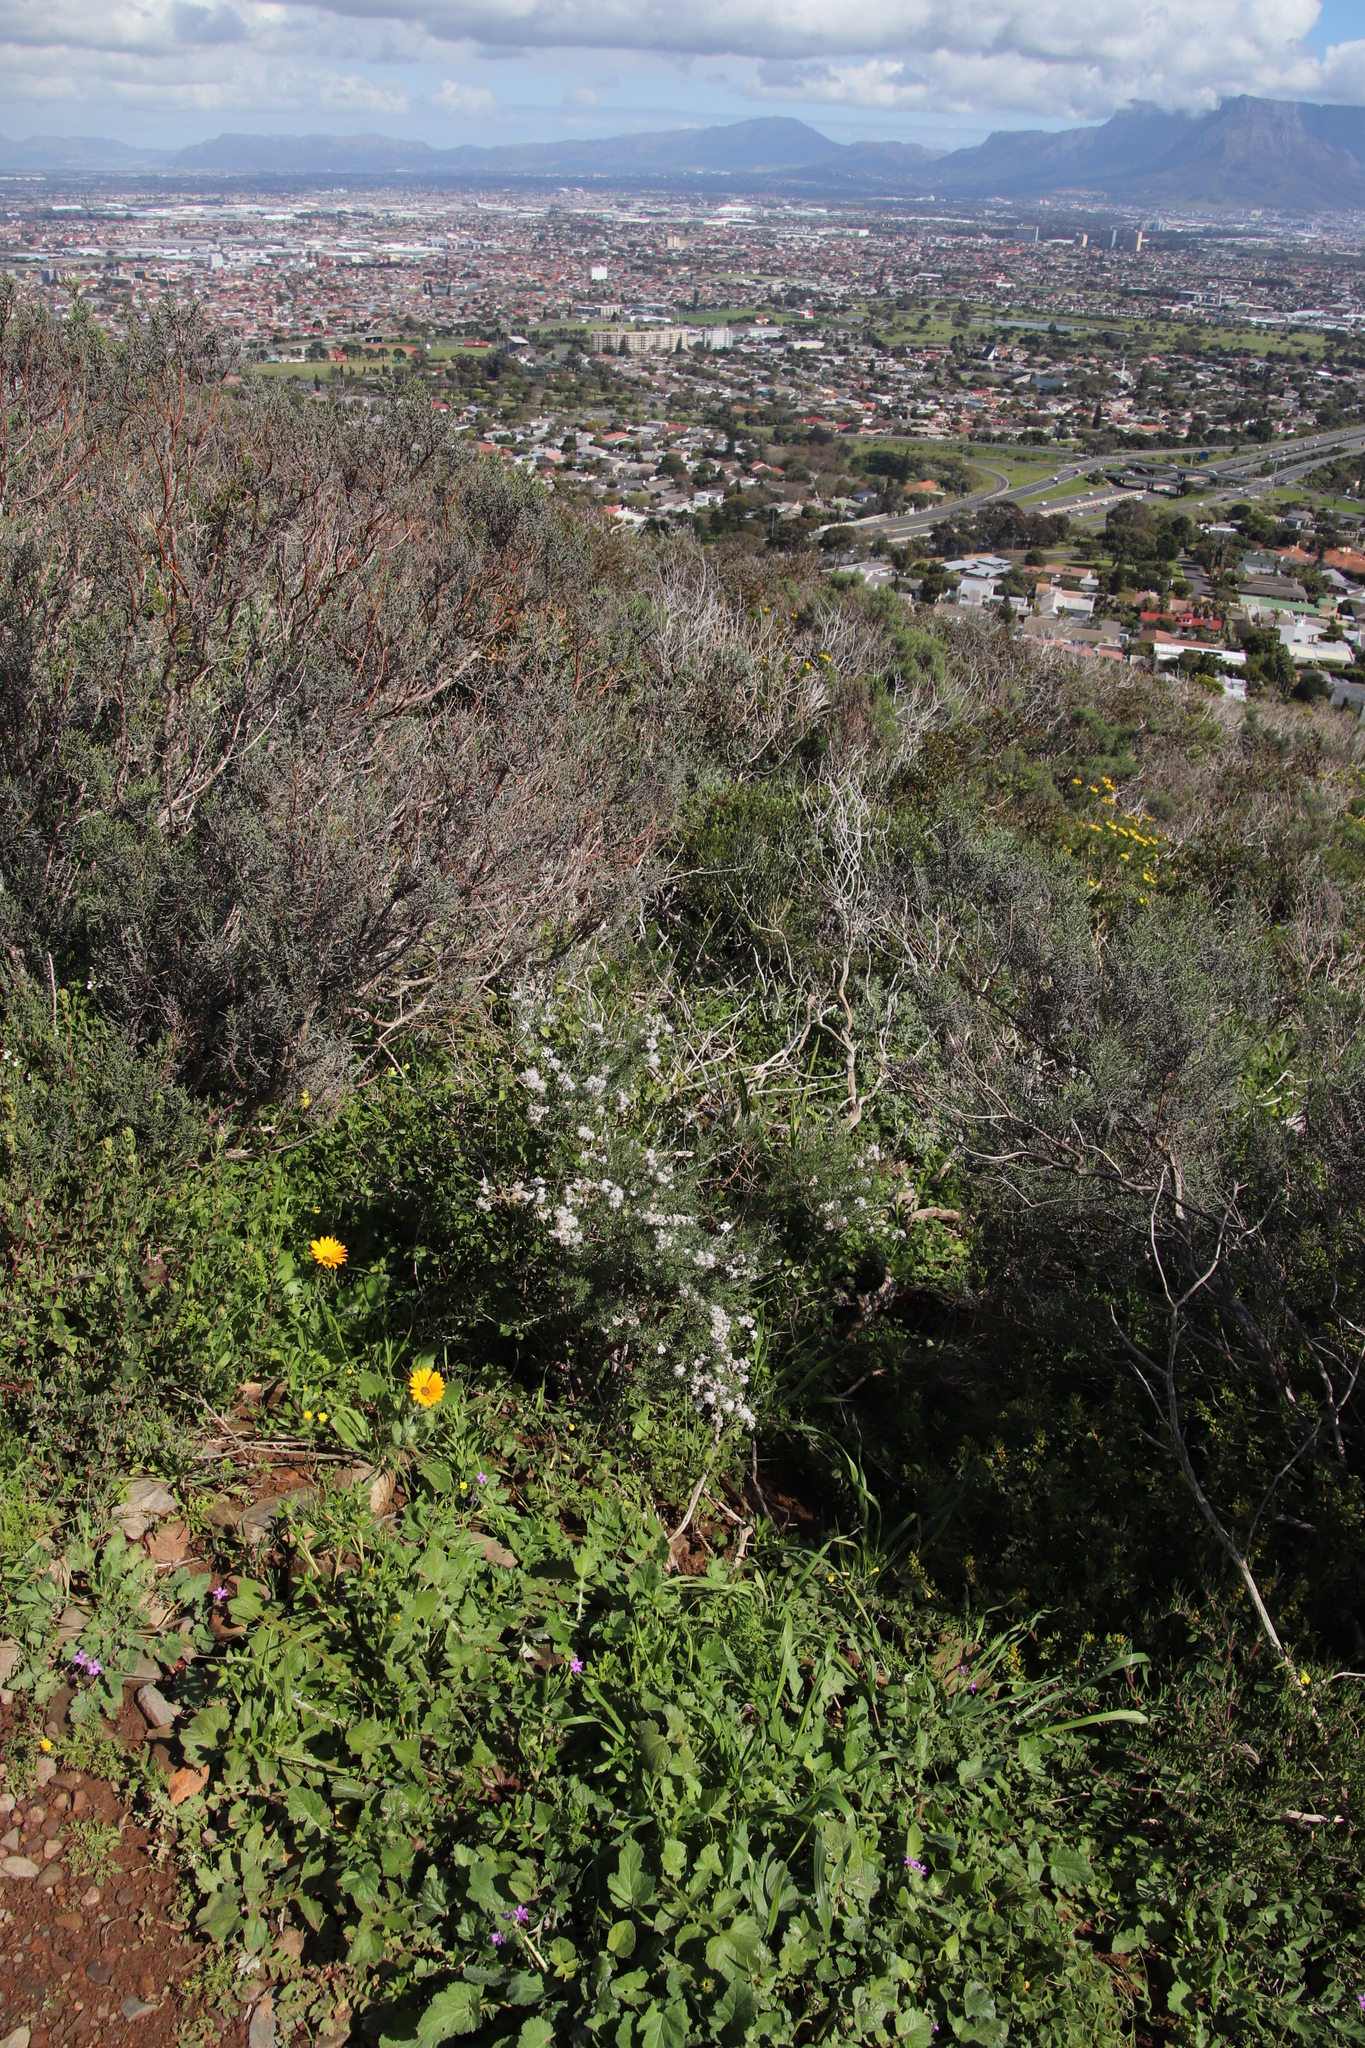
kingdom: Plantae
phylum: Tracheophyta
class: Magnoliopsida
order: Lamiales
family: Lamiaceae
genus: Stachys
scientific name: Stachys aethiopica
